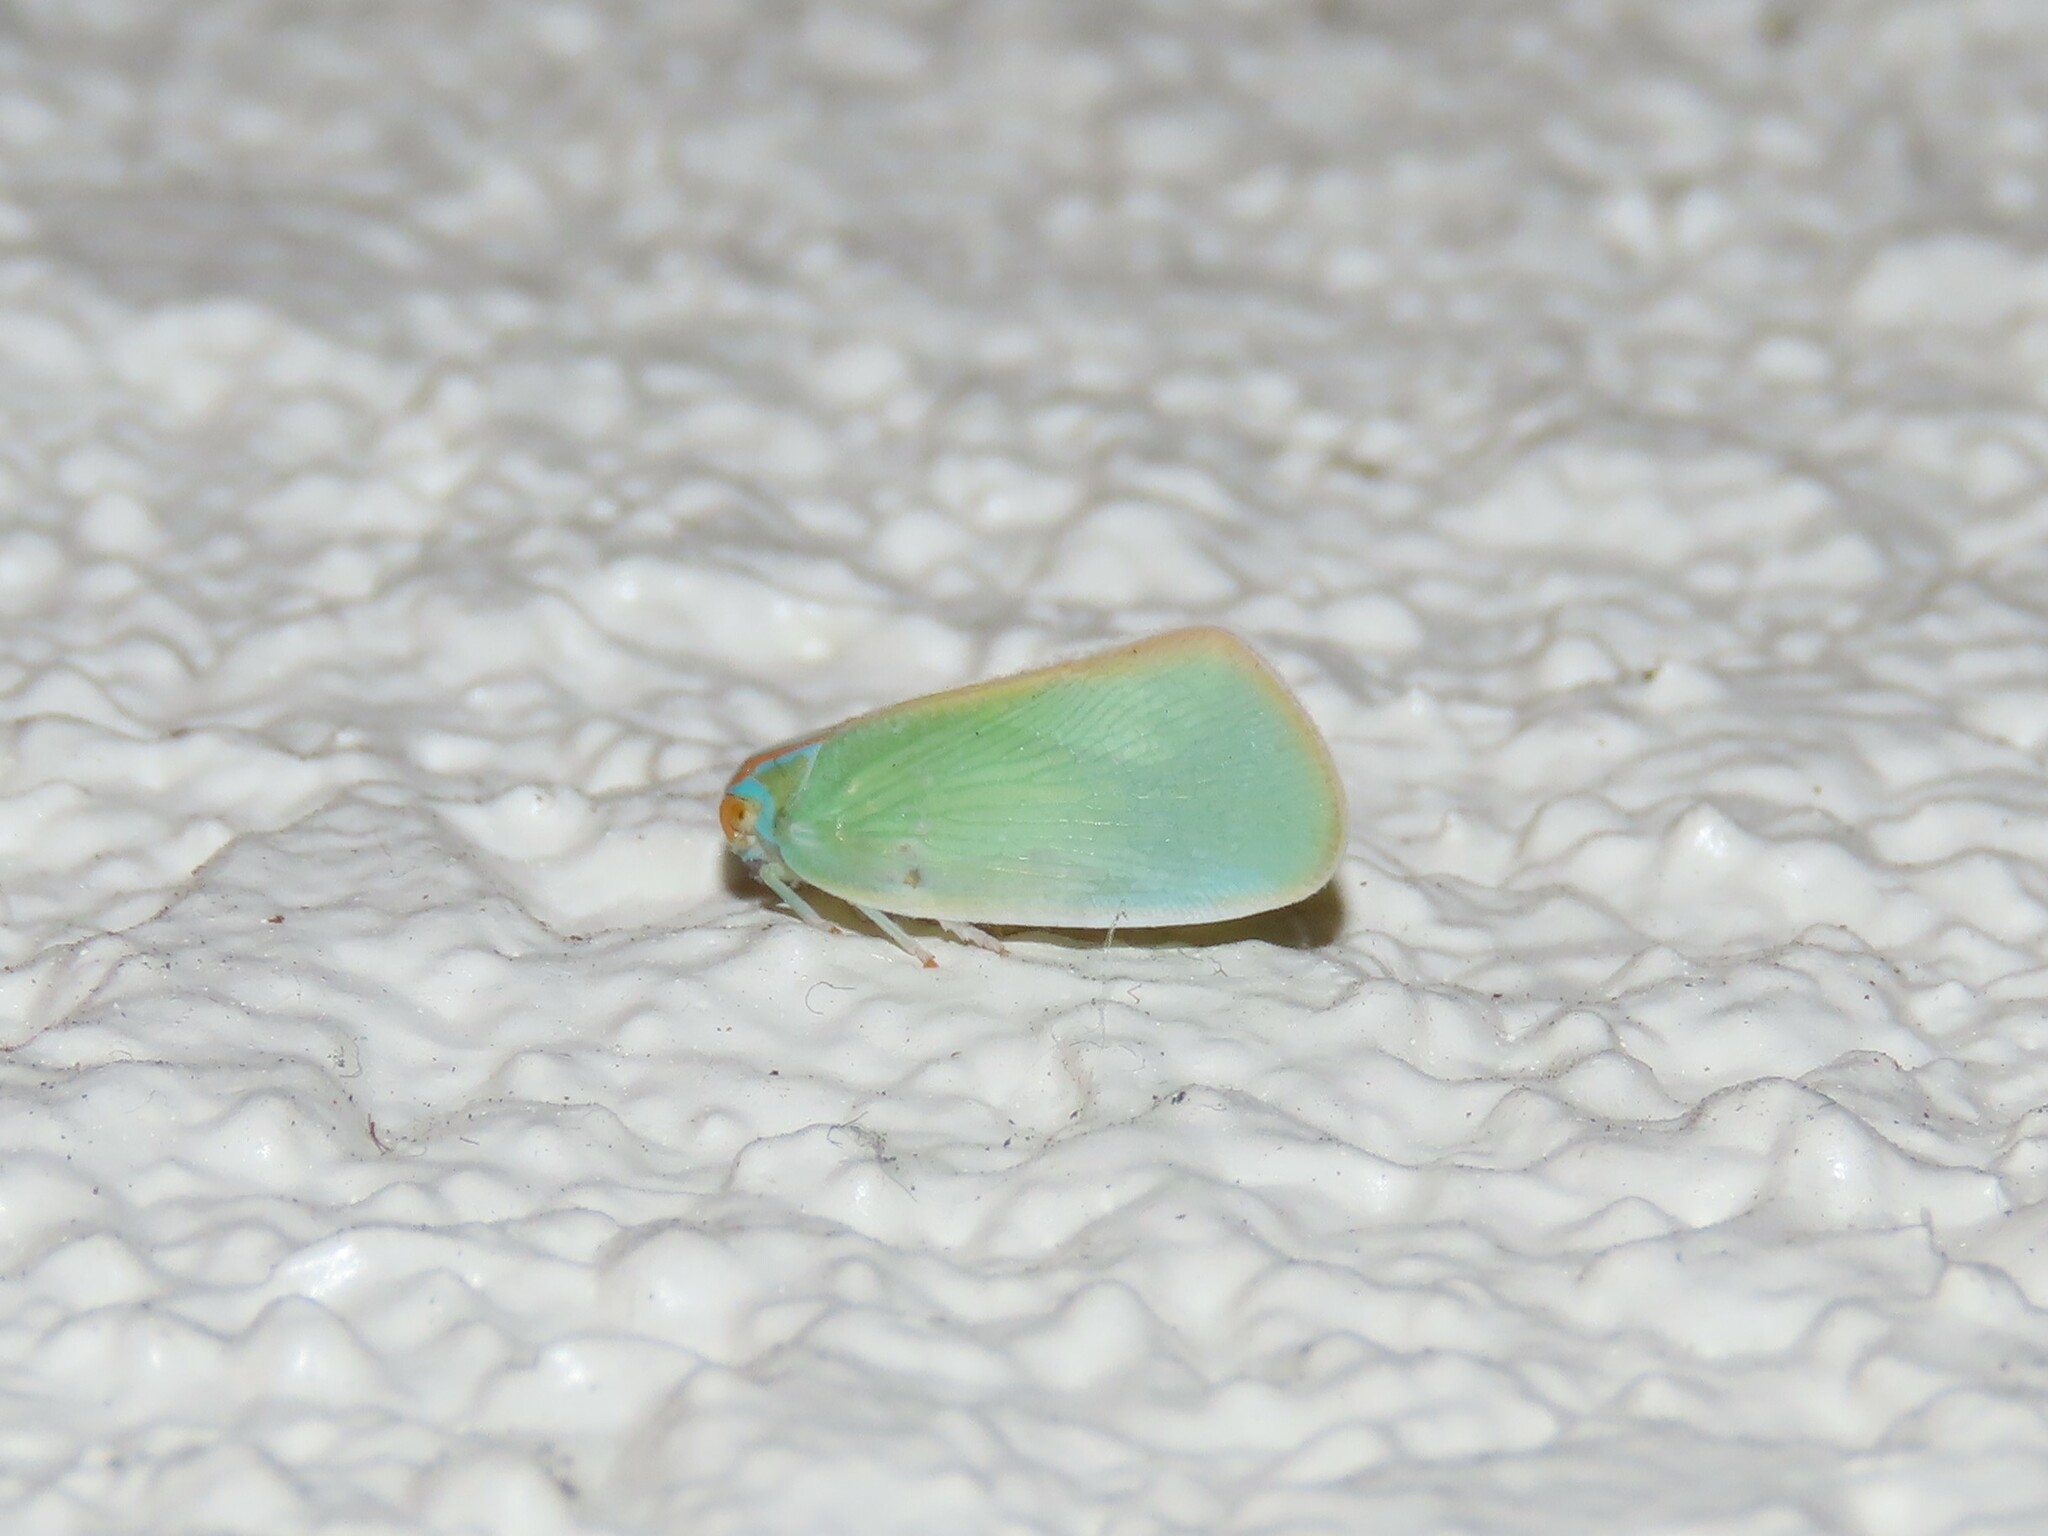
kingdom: Animalia
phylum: Arthropoda
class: Insecta
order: Hemiptera
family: Flatidae
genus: Ormenaria
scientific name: Ormenaria rufifascia
